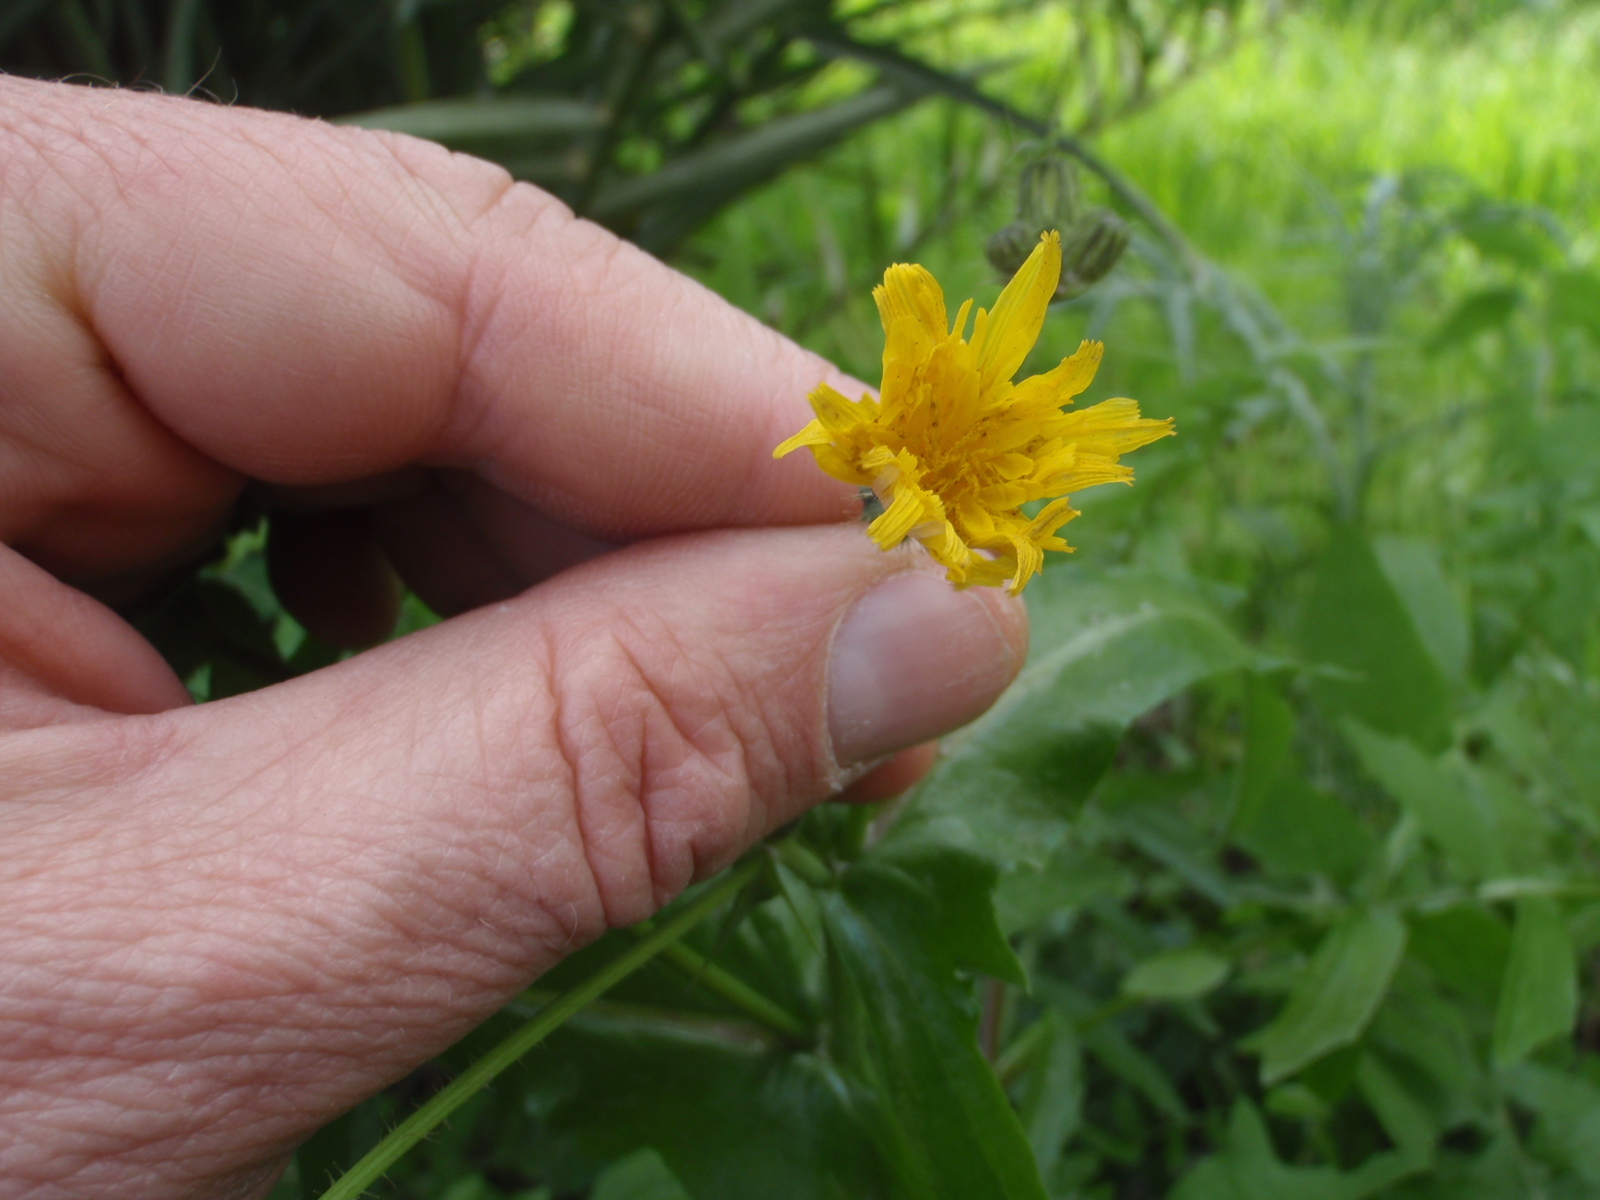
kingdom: Plantae
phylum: Tracheophyta
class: Magnoliopsida
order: Asterales
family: Asteraceae
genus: Sonchus
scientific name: Sonchus tenerrimus
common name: Clammy sowthistle
